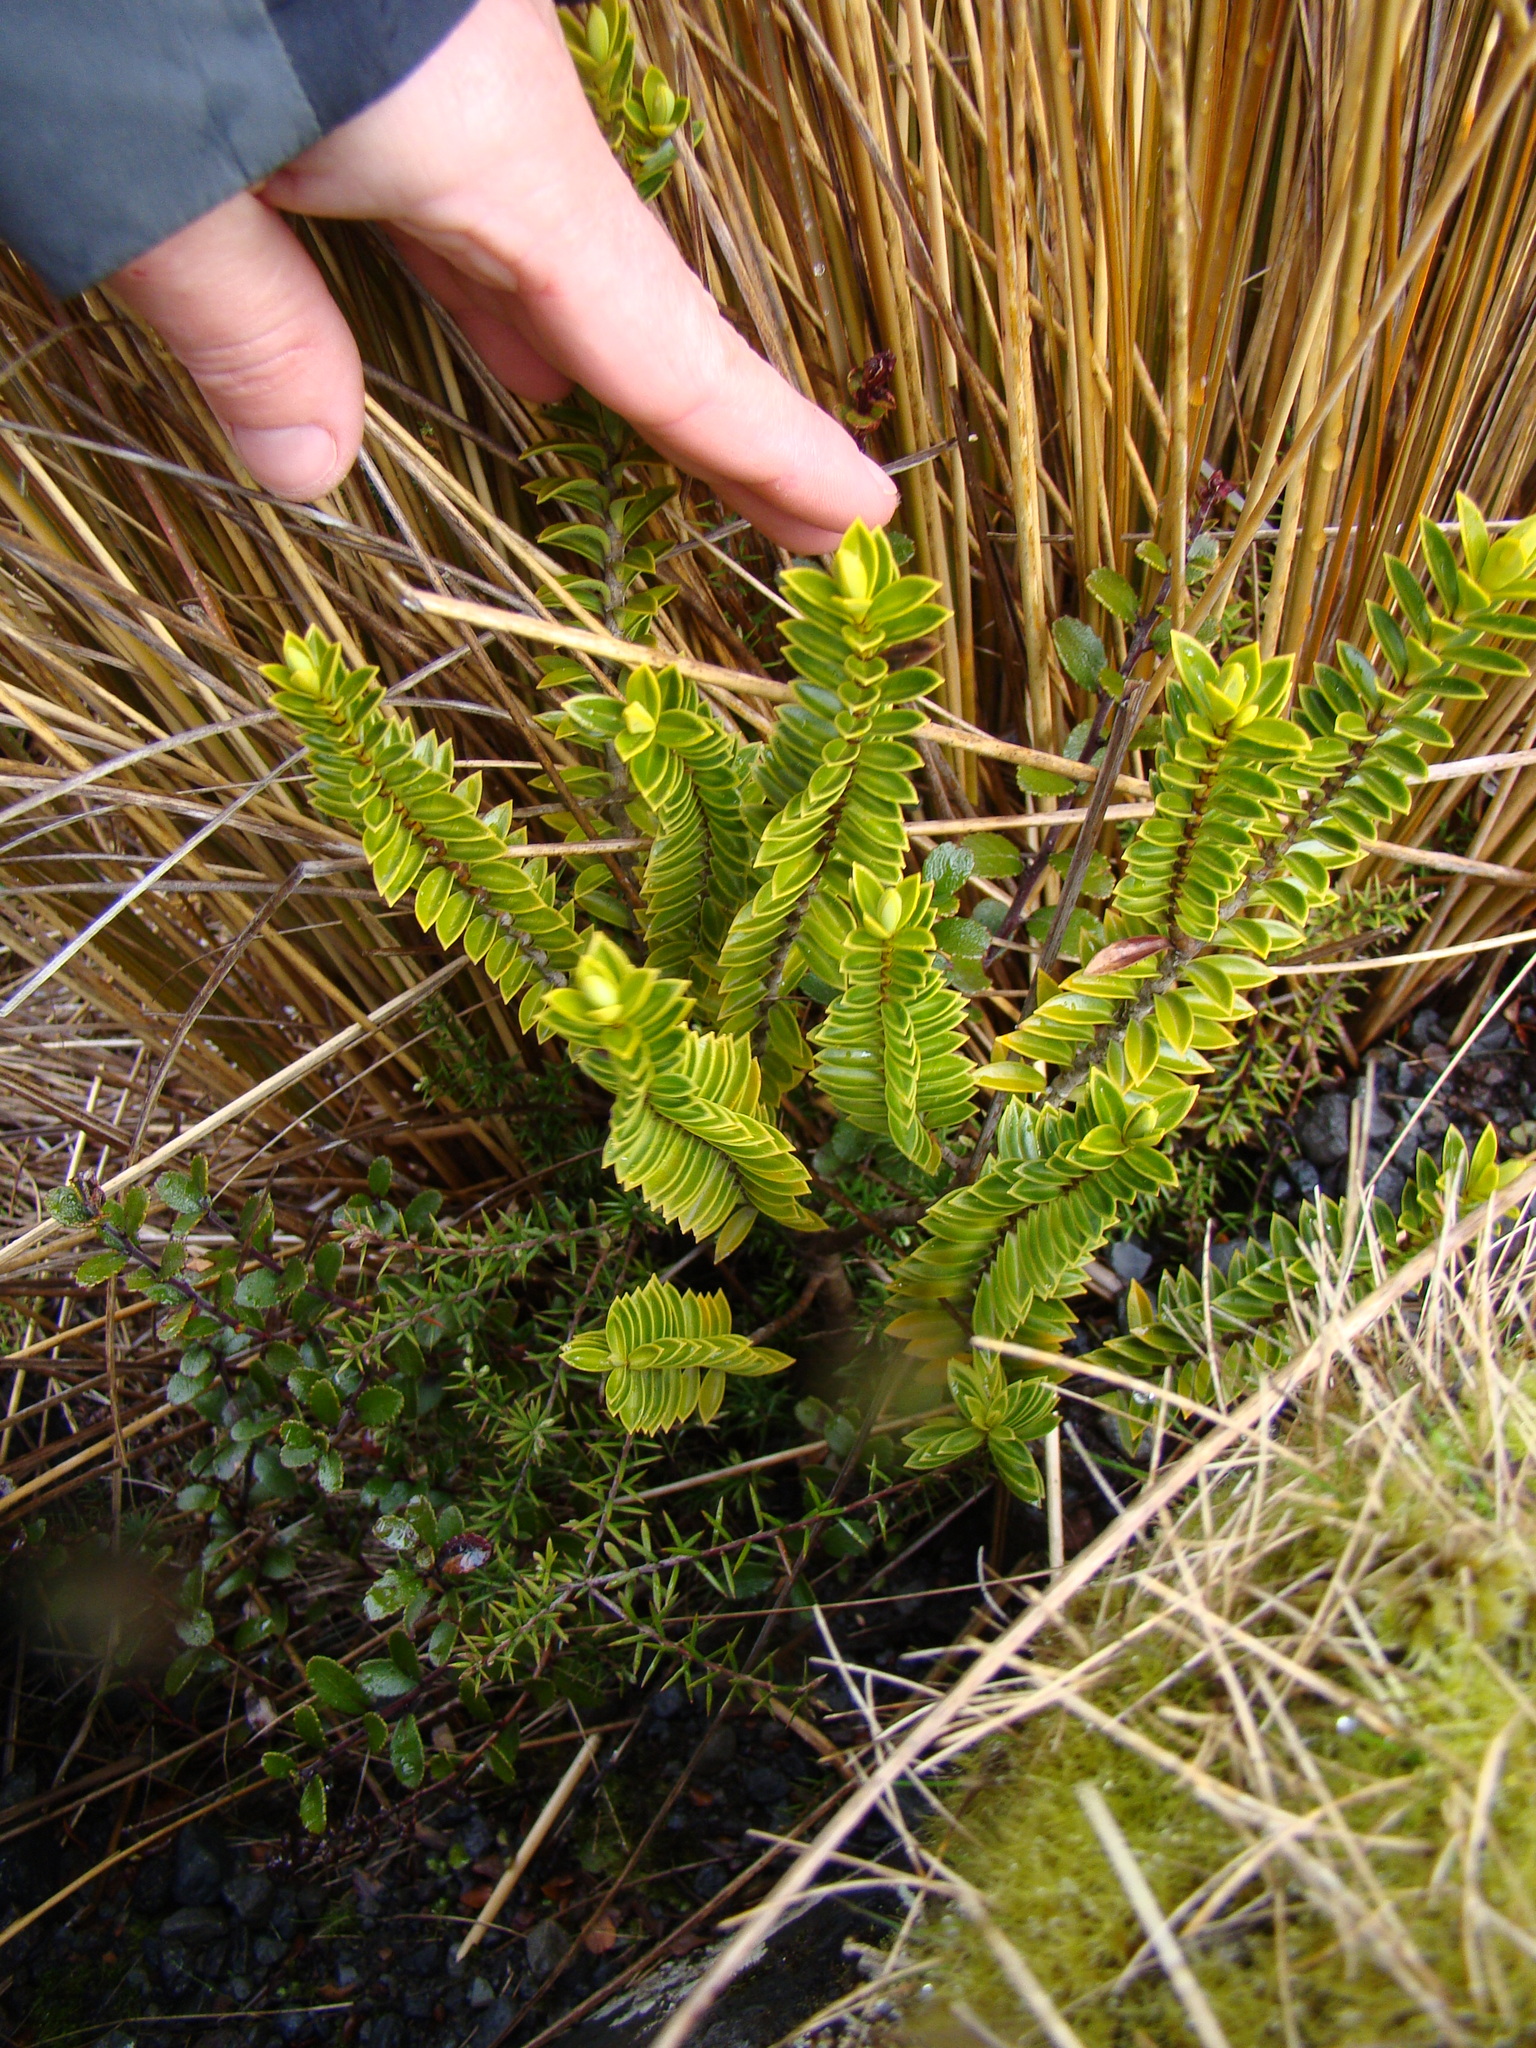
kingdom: Plantae
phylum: Tracheophyta
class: Magnoliopsida
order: Lamiales
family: Plantaginaceae
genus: Veronica
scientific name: Veronica venustula
